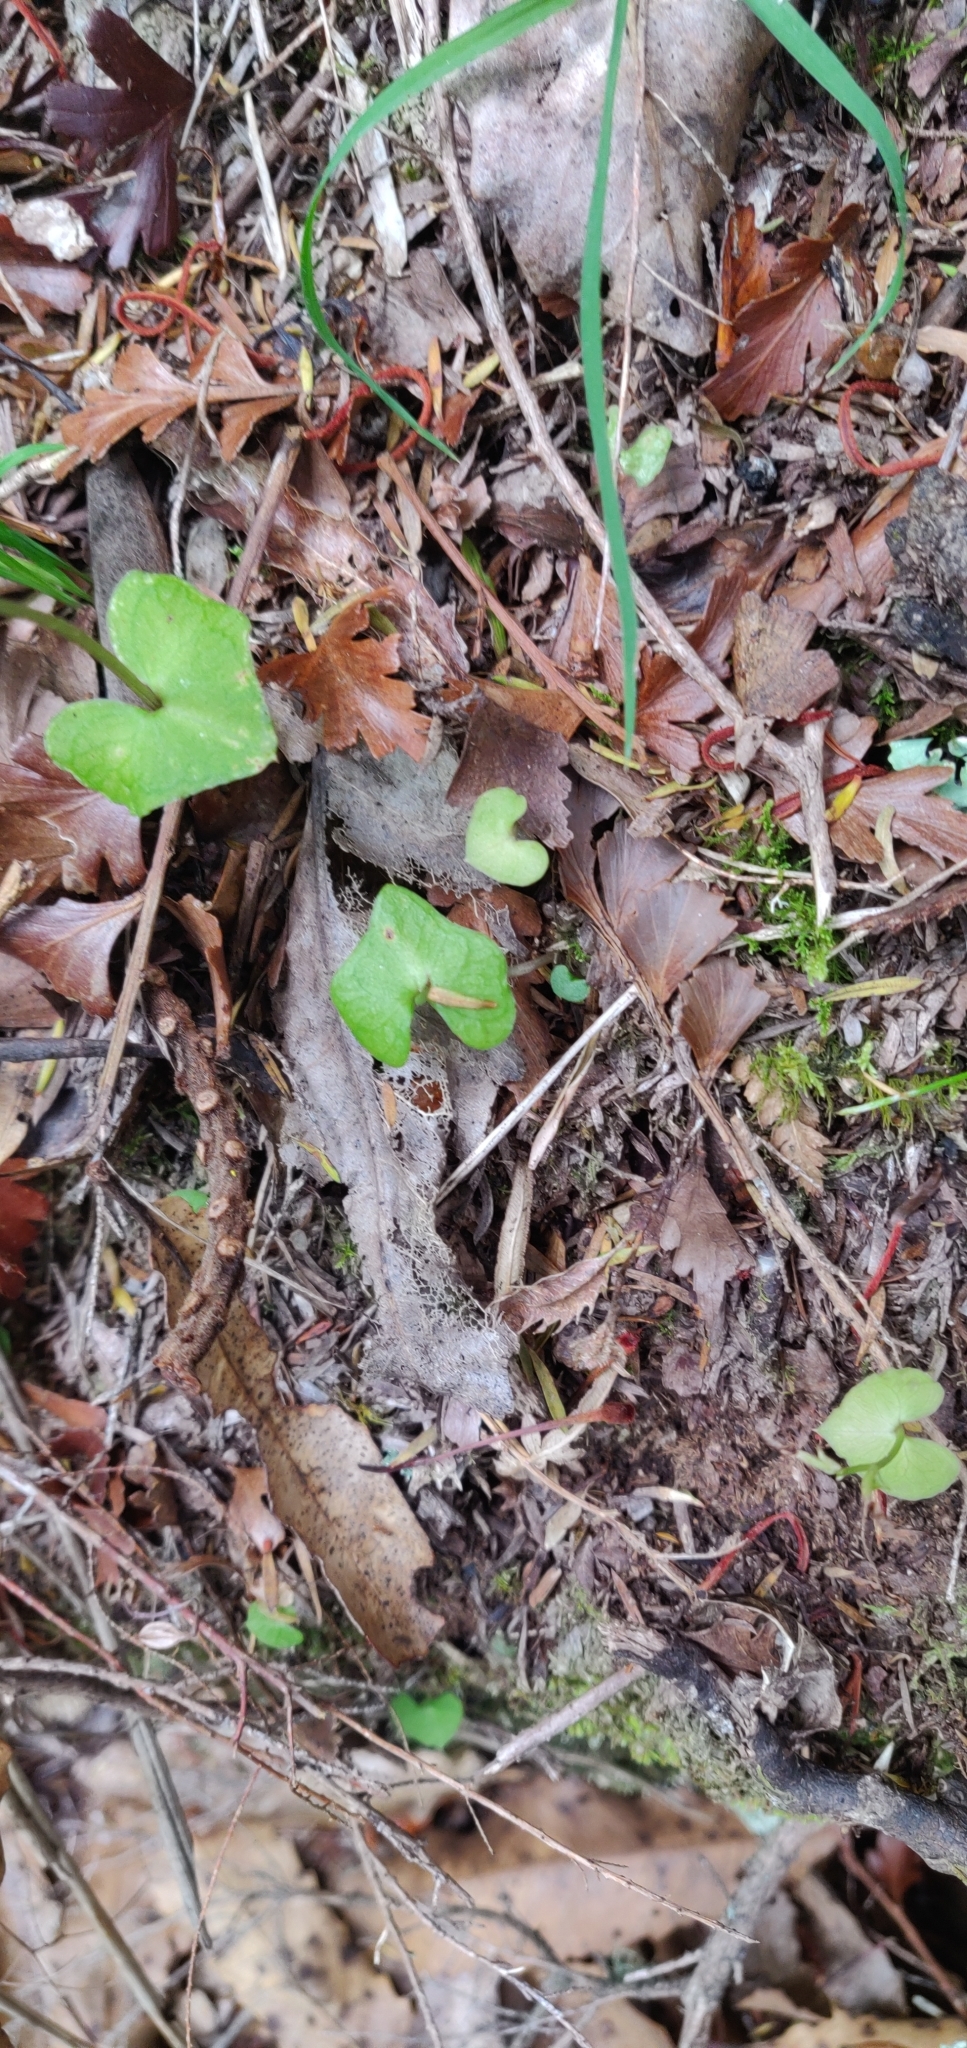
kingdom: Plantae
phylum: Tracheophyta
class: Liliopsida
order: Asparagales
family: Orchidaceae
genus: Acianthus
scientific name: Acianthus sinclairii
